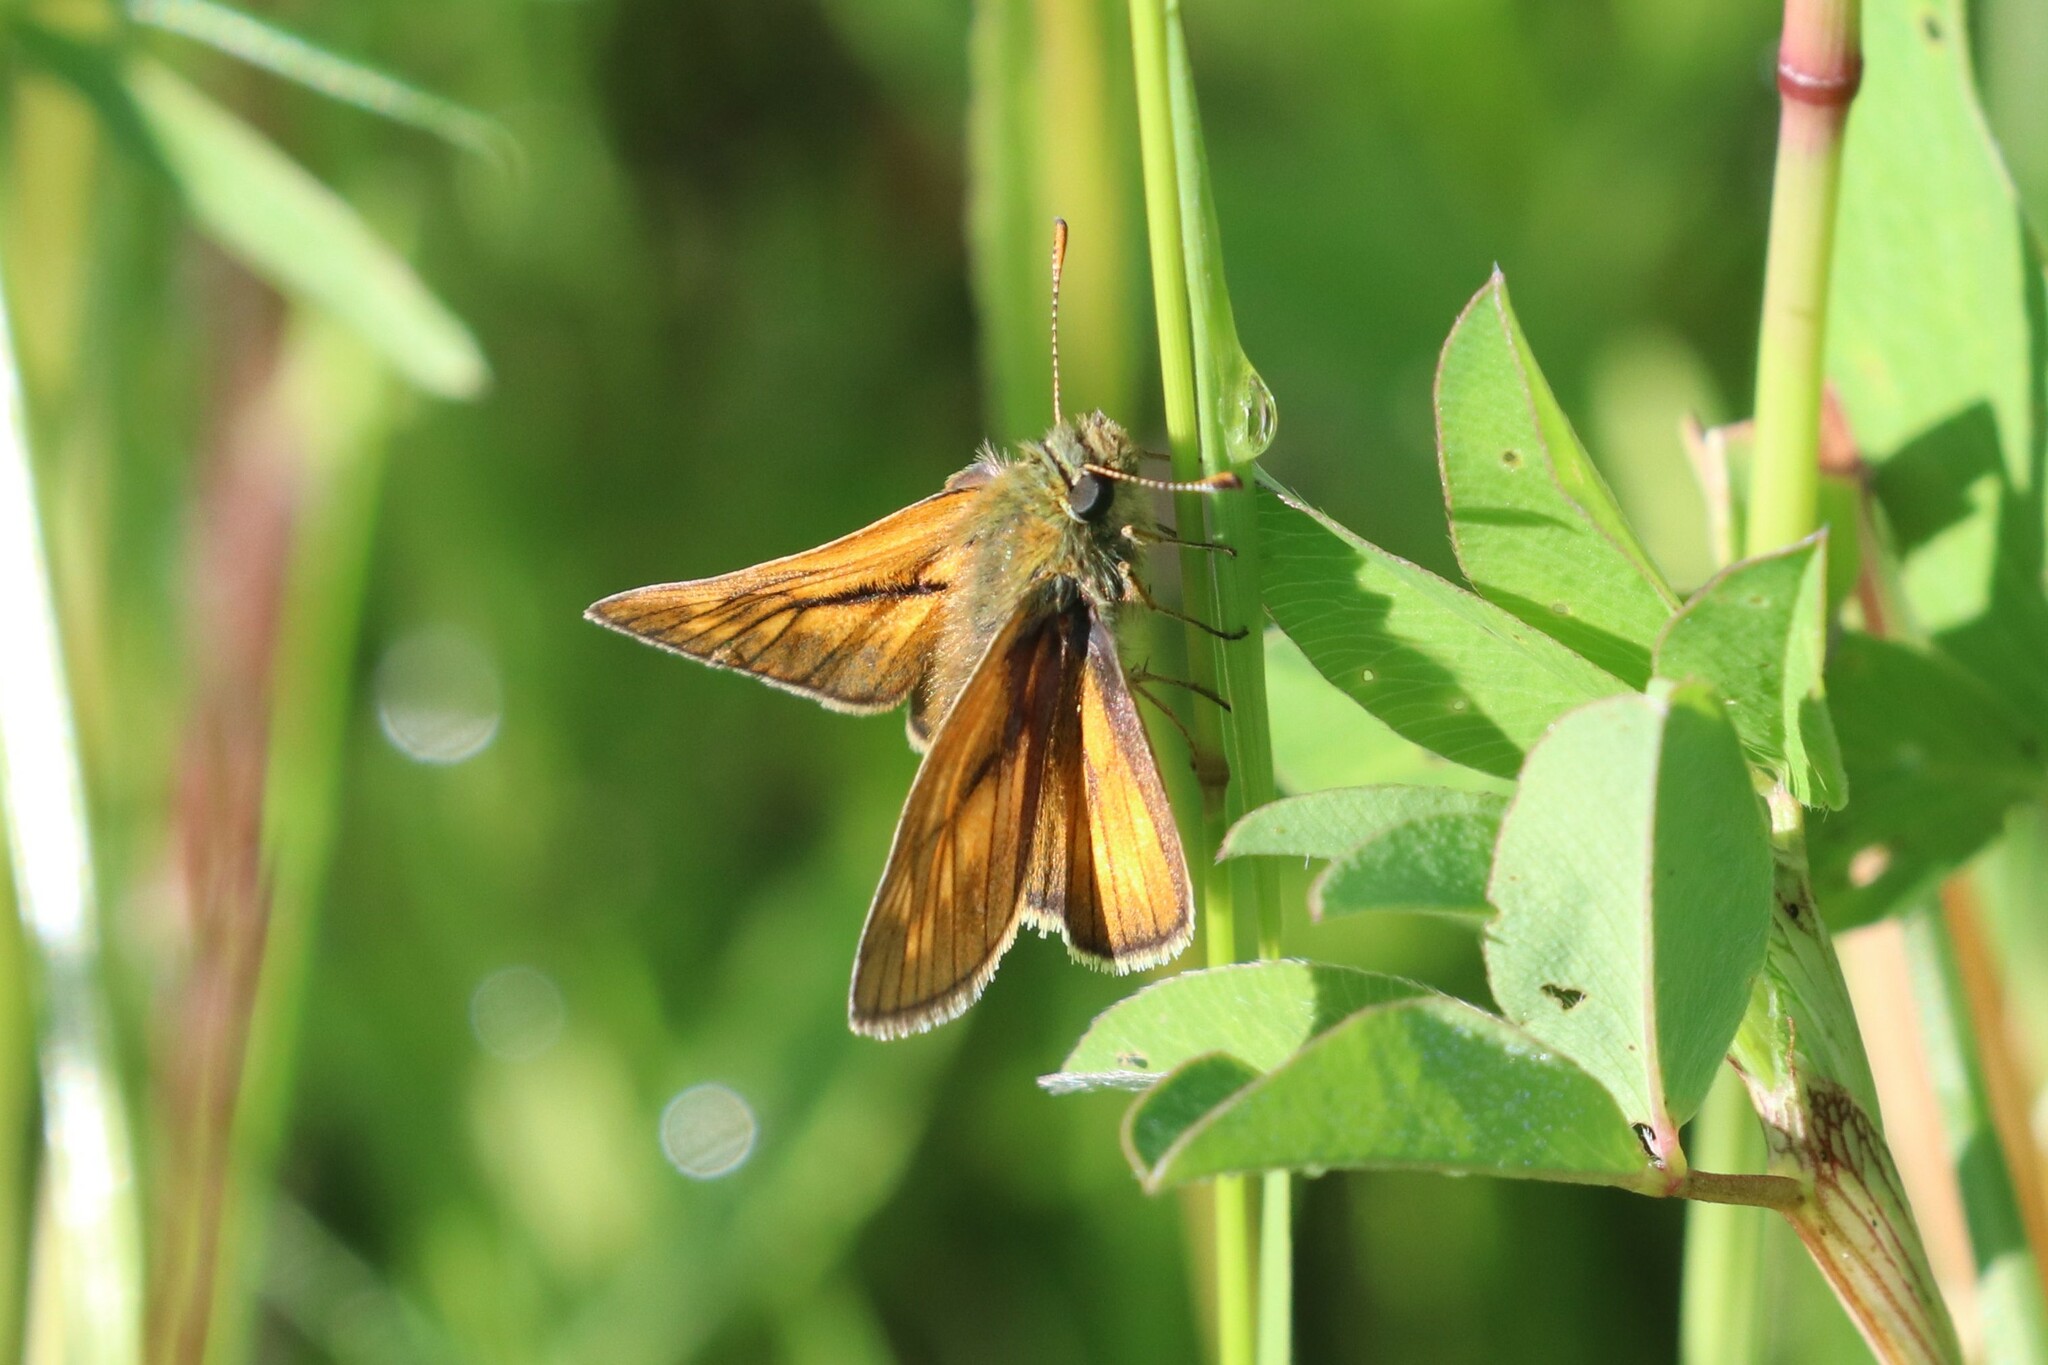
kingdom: Animalia
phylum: Arthropoda
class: Insecta
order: Lepidoptera
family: Hesperiidae
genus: Ochlodes
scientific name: Ochlodes venata
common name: Large skipper
